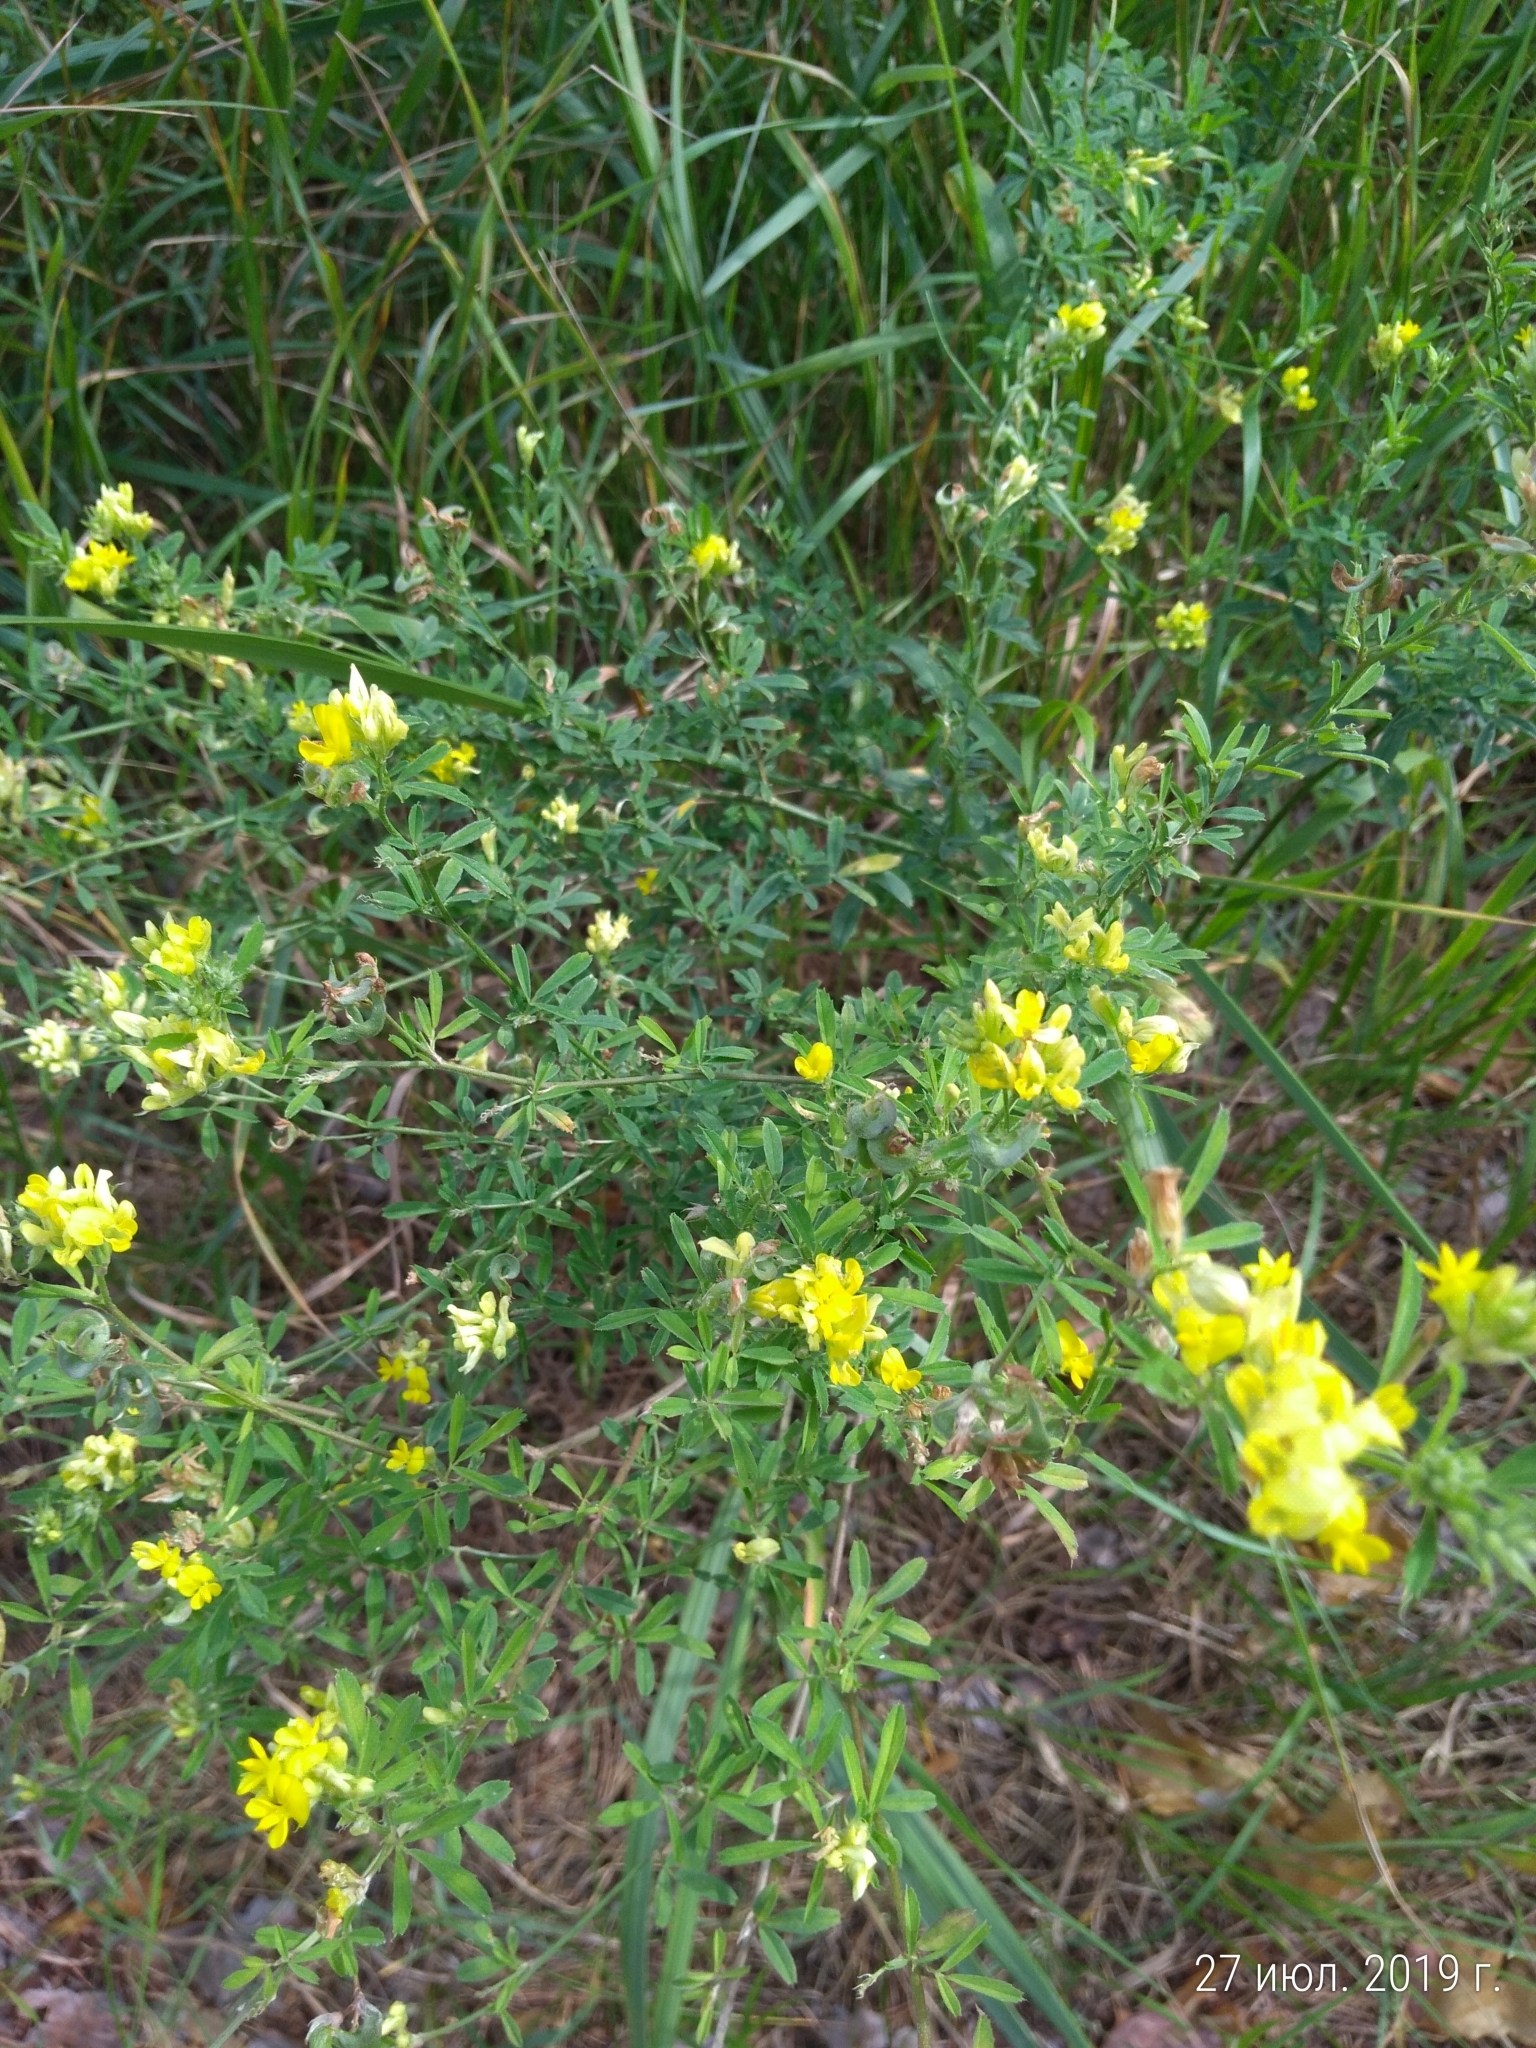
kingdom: Plantae
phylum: Tracheophyta
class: Magnoliopsida
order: Fabales
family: Fabaceae
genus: Medicago
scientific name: Medicago falcata
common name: Sickle medick
